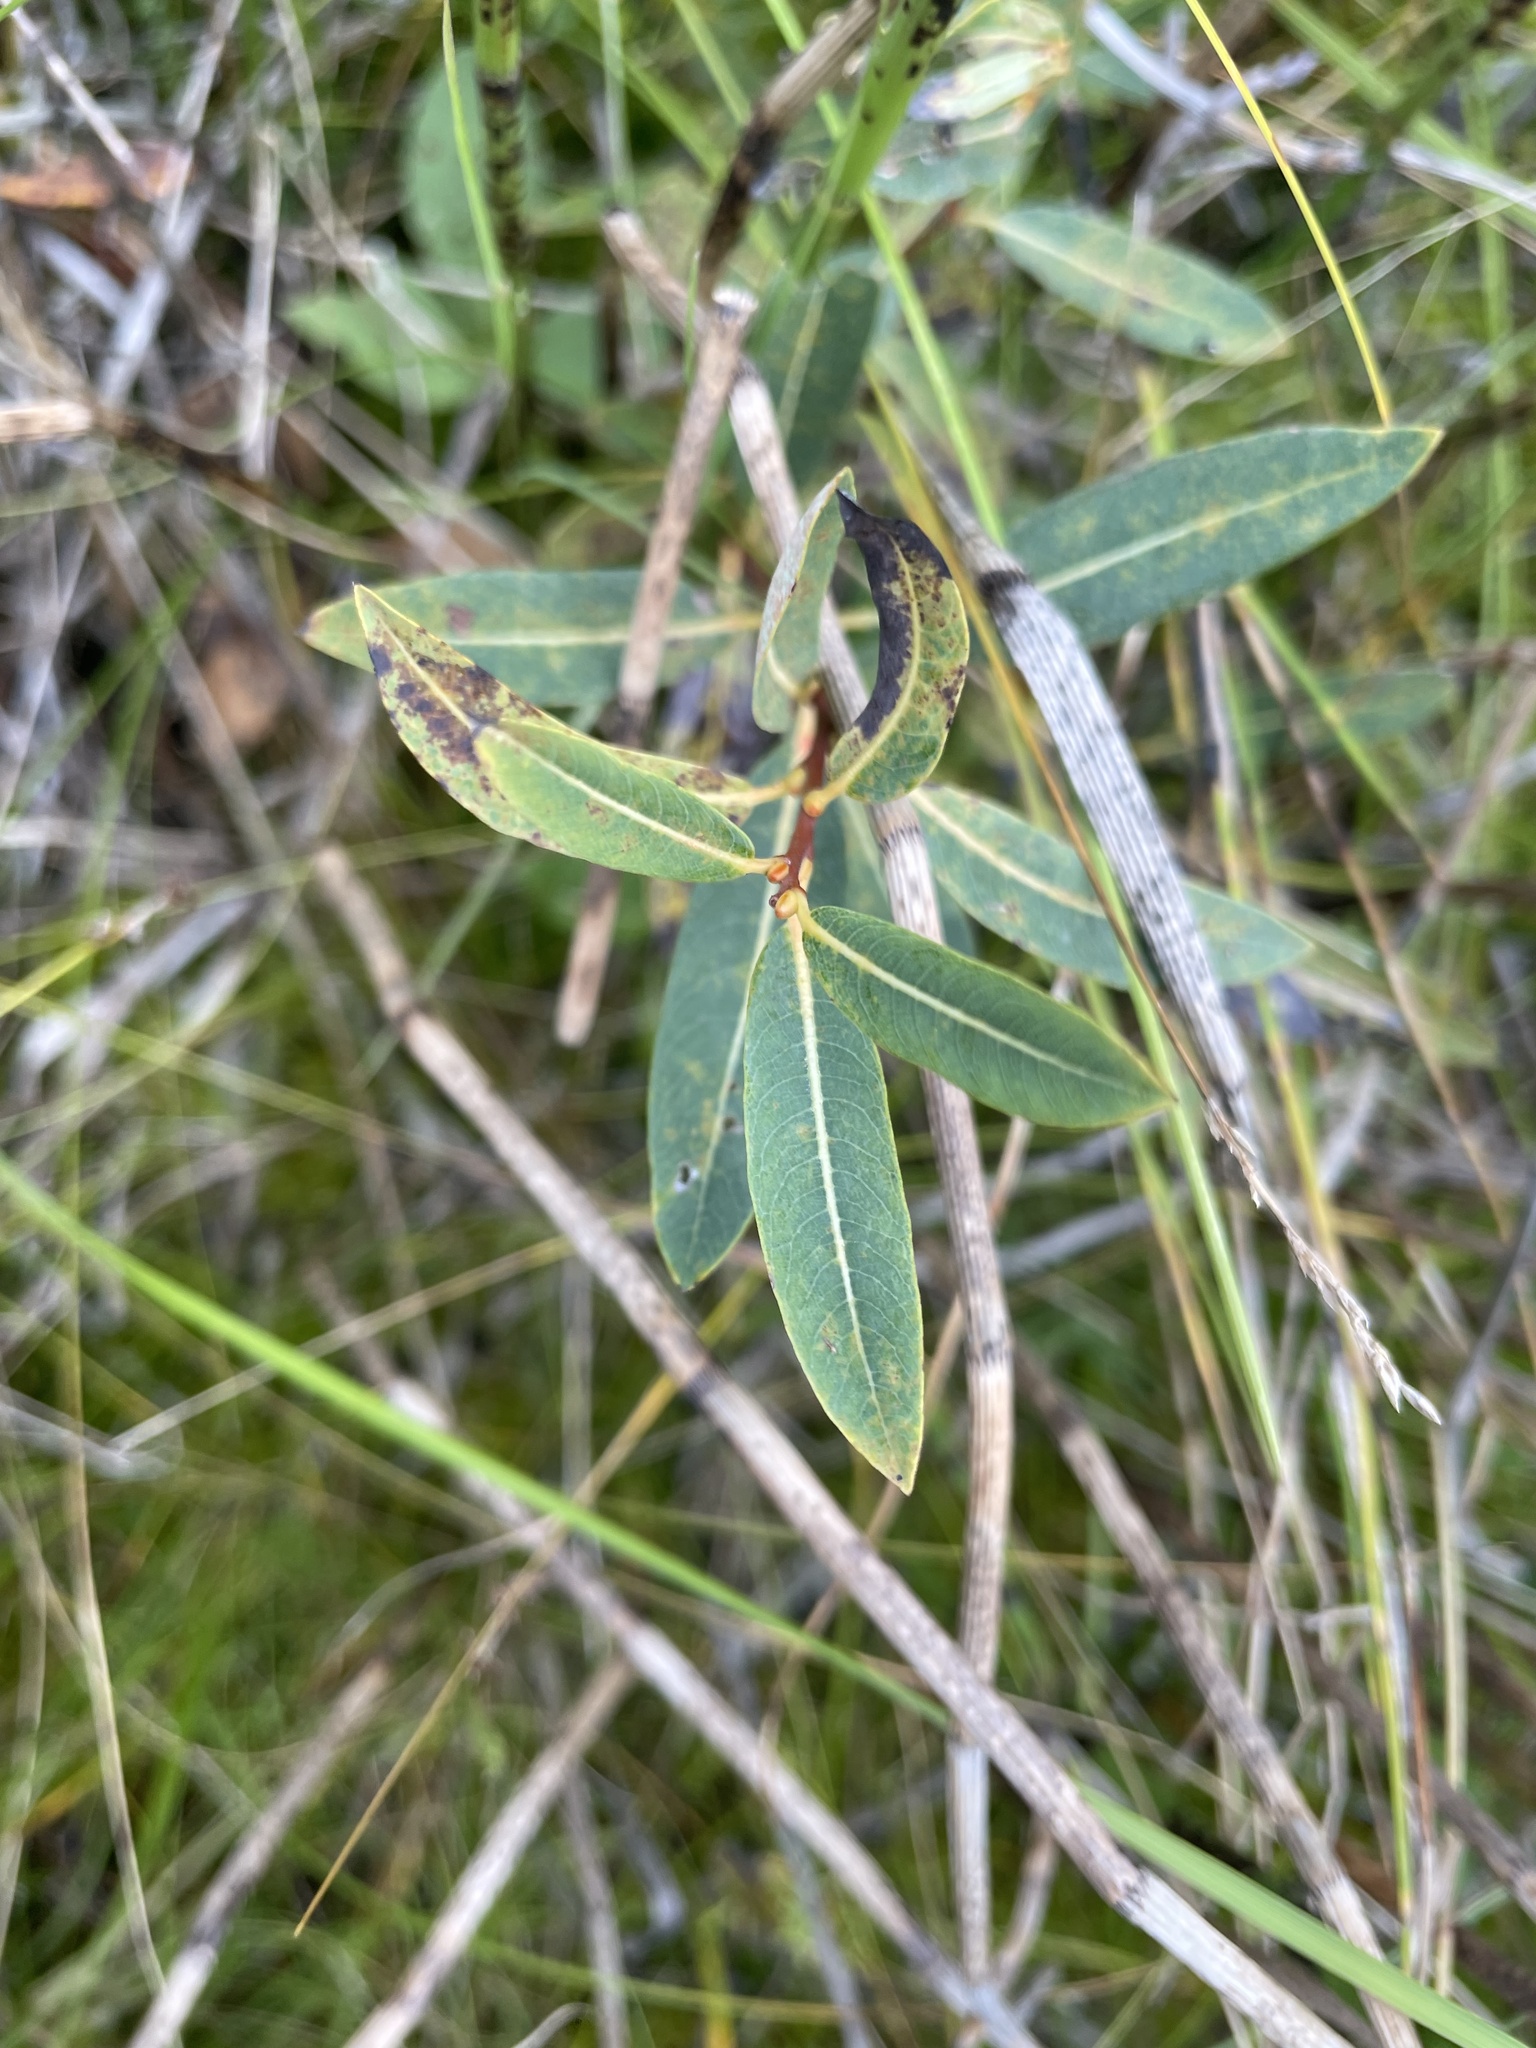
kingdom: Plantae
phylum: Tracheophyta
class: Magnoliopsida
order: Malpighiales
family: Salicaceae
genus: Salix
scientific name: Salix pedicellaris
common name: Bog willow
